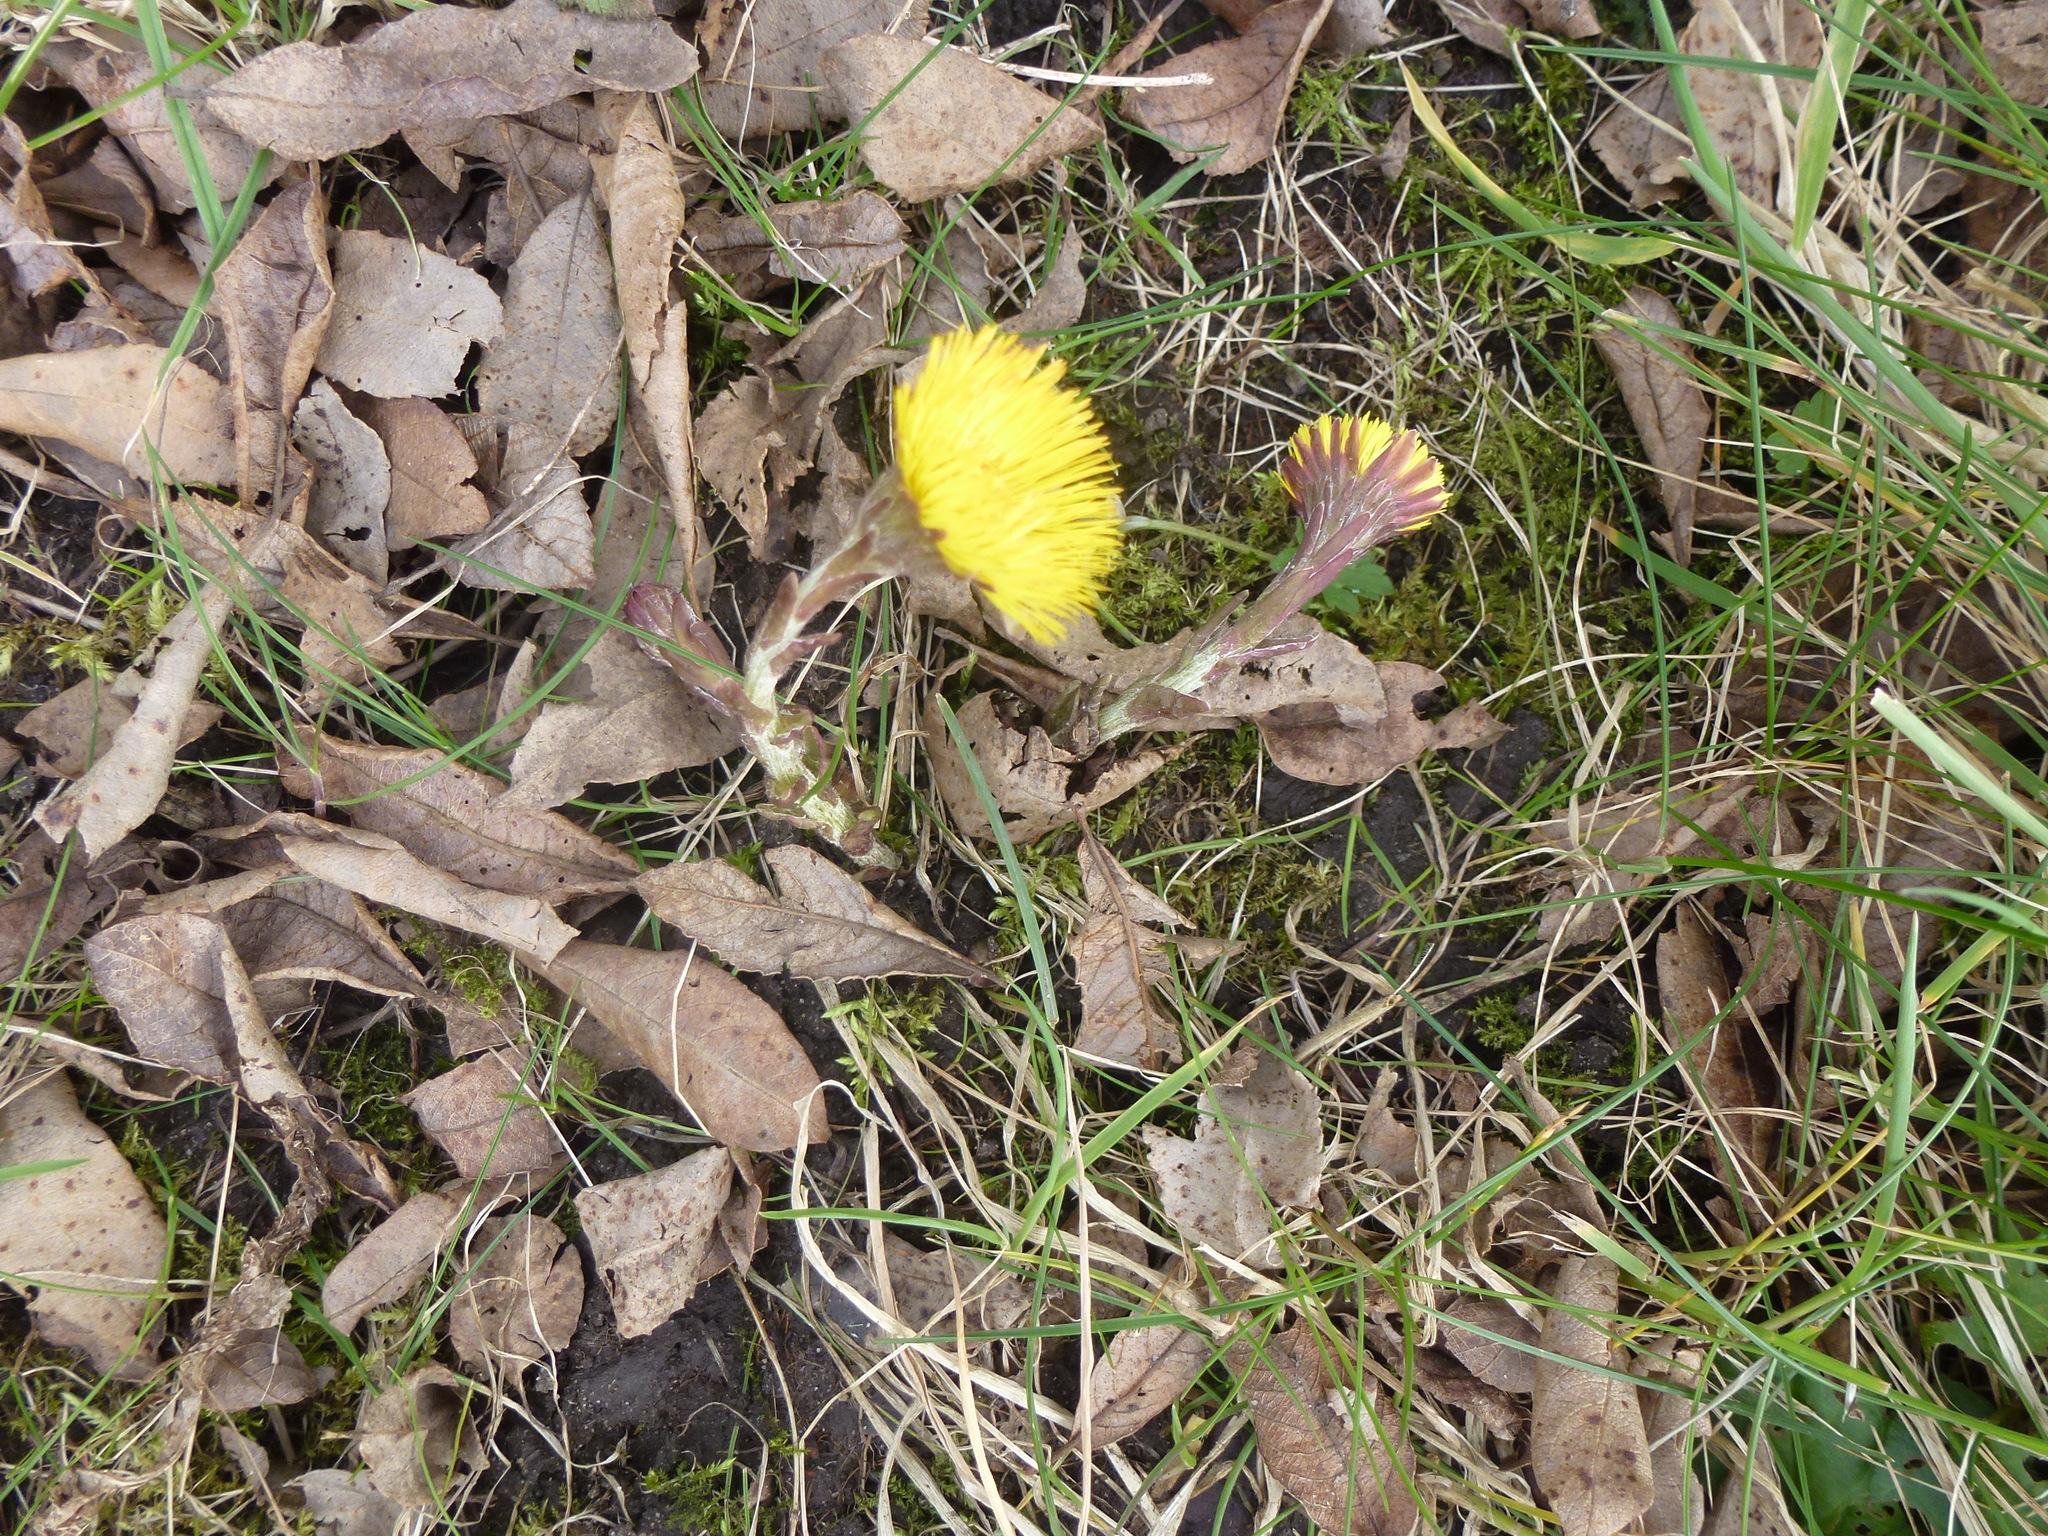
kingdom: Plantae
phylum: Tracheophyta
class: Magnoliopsida
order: Asterales
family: Asteraceae
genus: Tussilago
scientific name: Tussilago farfara
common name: Coltsfoot
